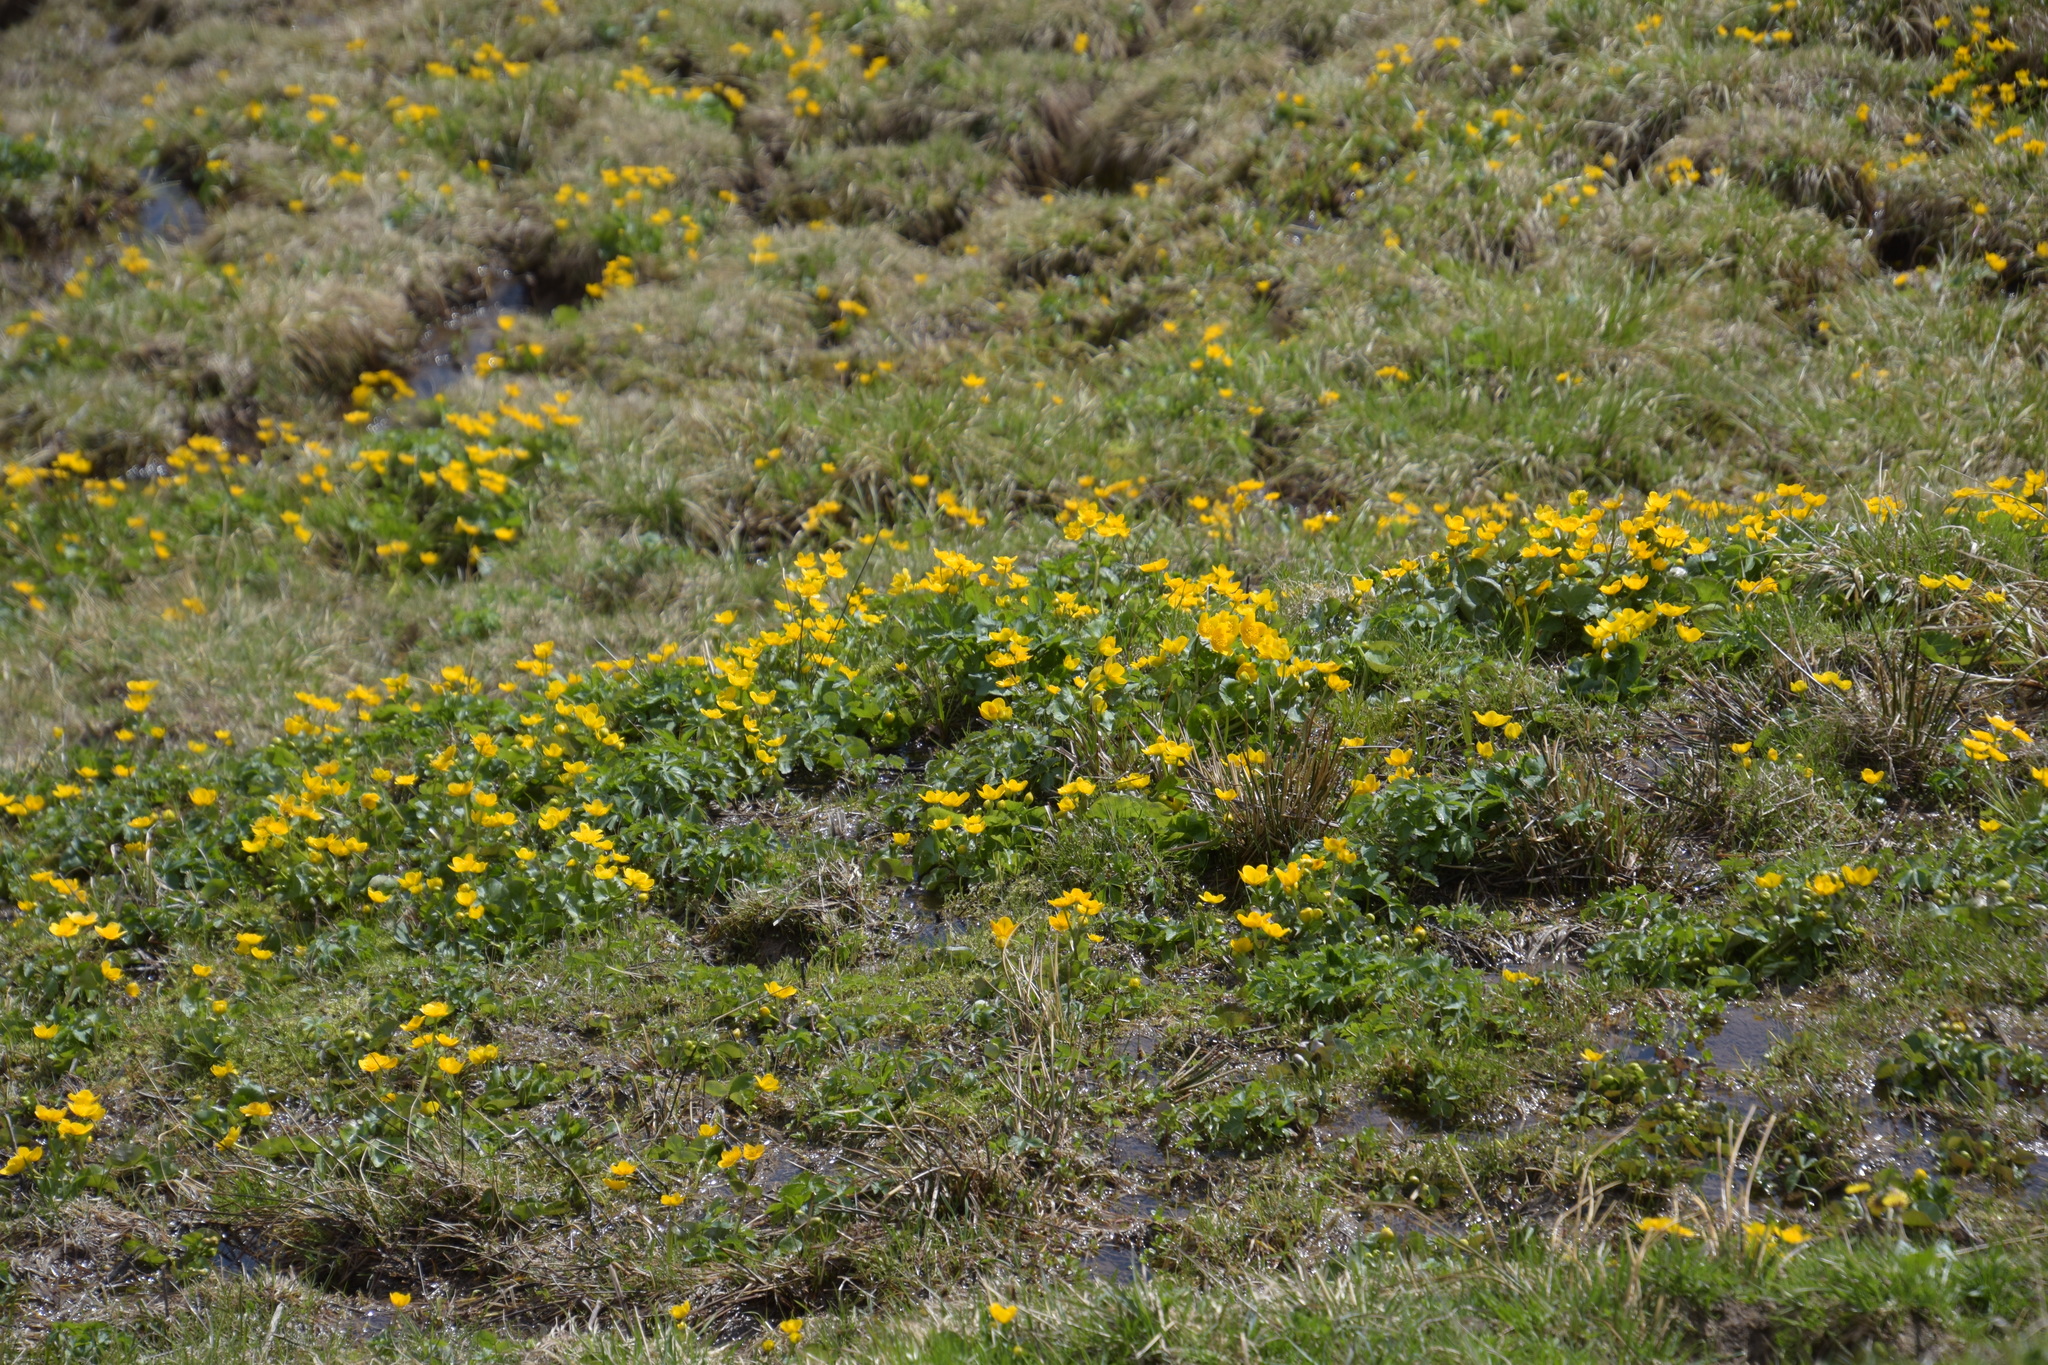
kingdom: Plantae
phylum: Tracheophyta
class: Magnoliopsida
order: Ranunculales
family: Ranunculaceae
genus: Caltha
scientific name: Caltha palustris
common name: Marsh marigold
